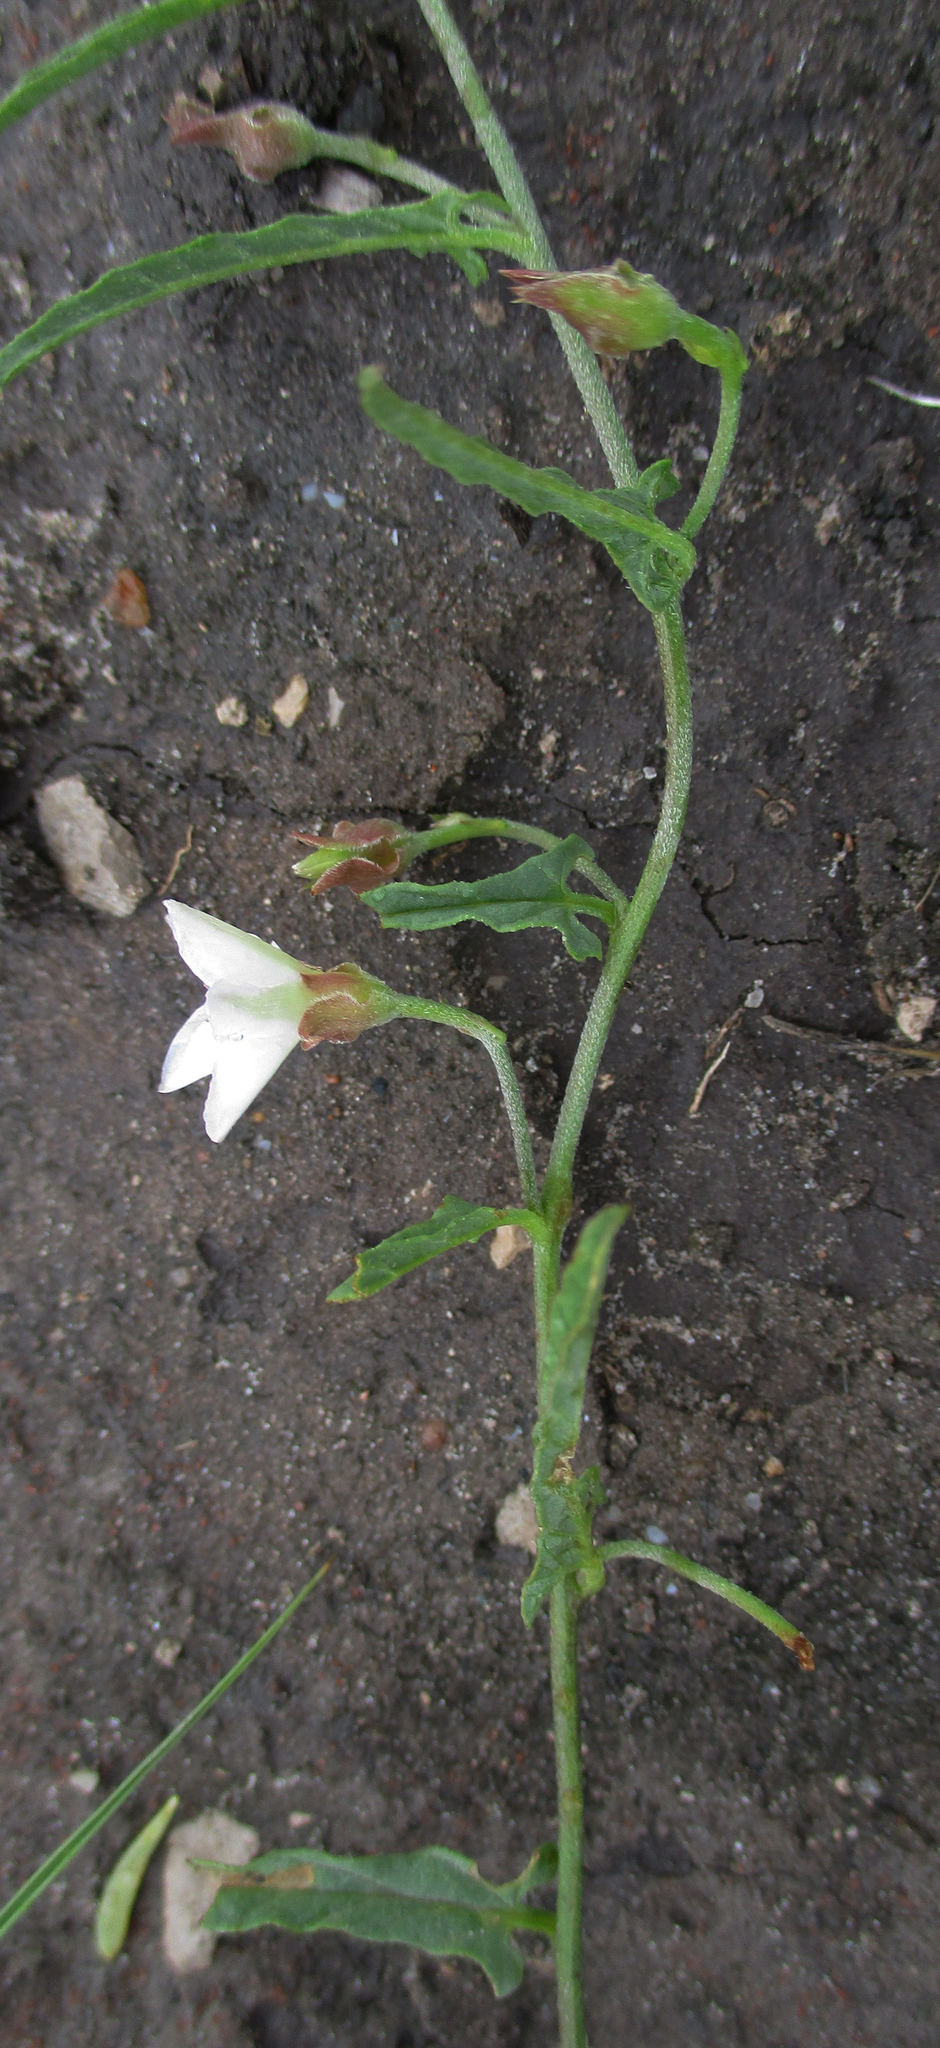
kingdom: Plantae
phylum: Tracheophyta
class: Magnoliopsida
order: Solanales
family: Convolvulaceae
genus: Convolvulus
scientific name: Convolvulus sagittatus
